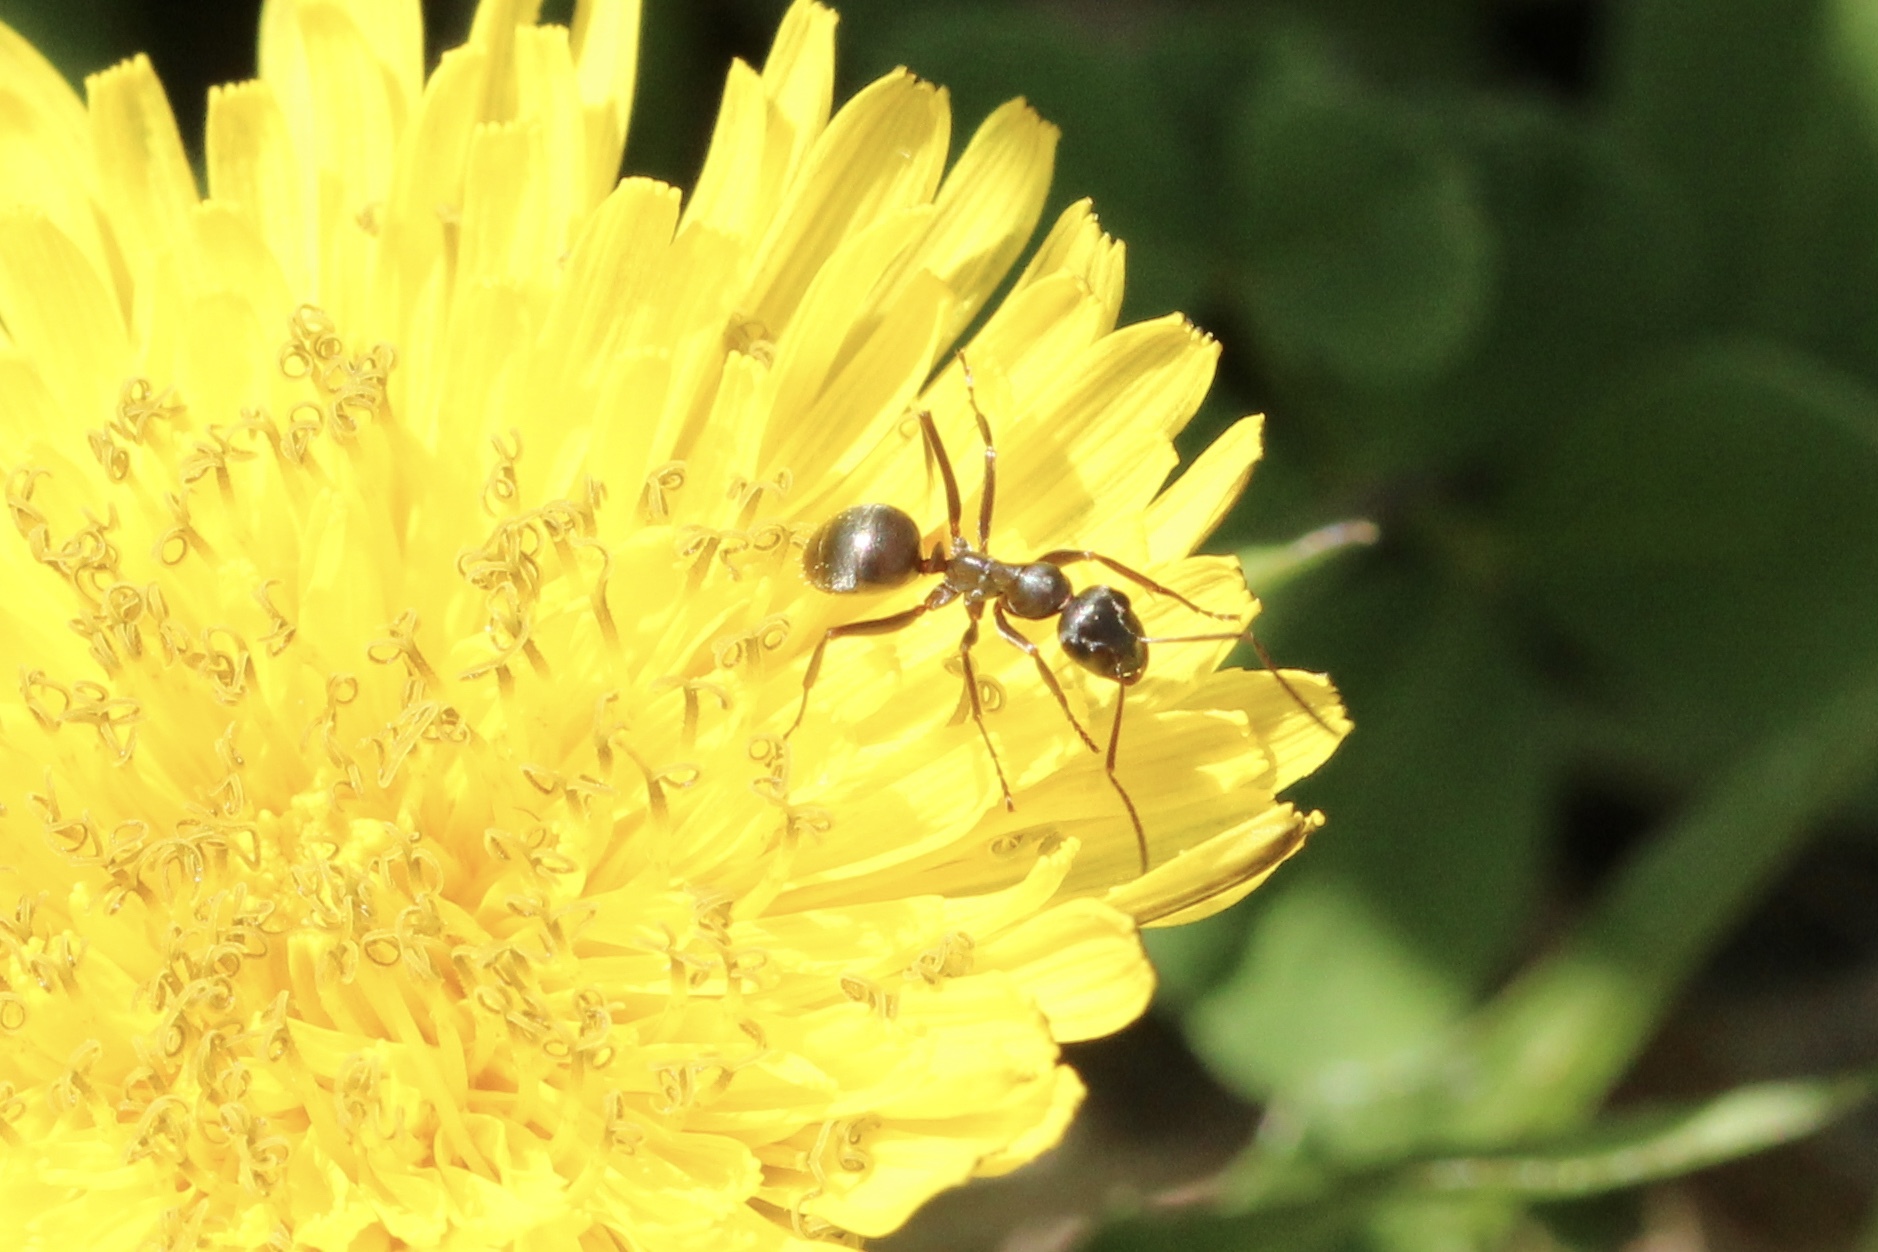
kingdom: Animalia
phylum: Arthropoda
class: Insecta
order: Hymenoptera
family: Formicidae
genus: Formica
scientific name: Formica
